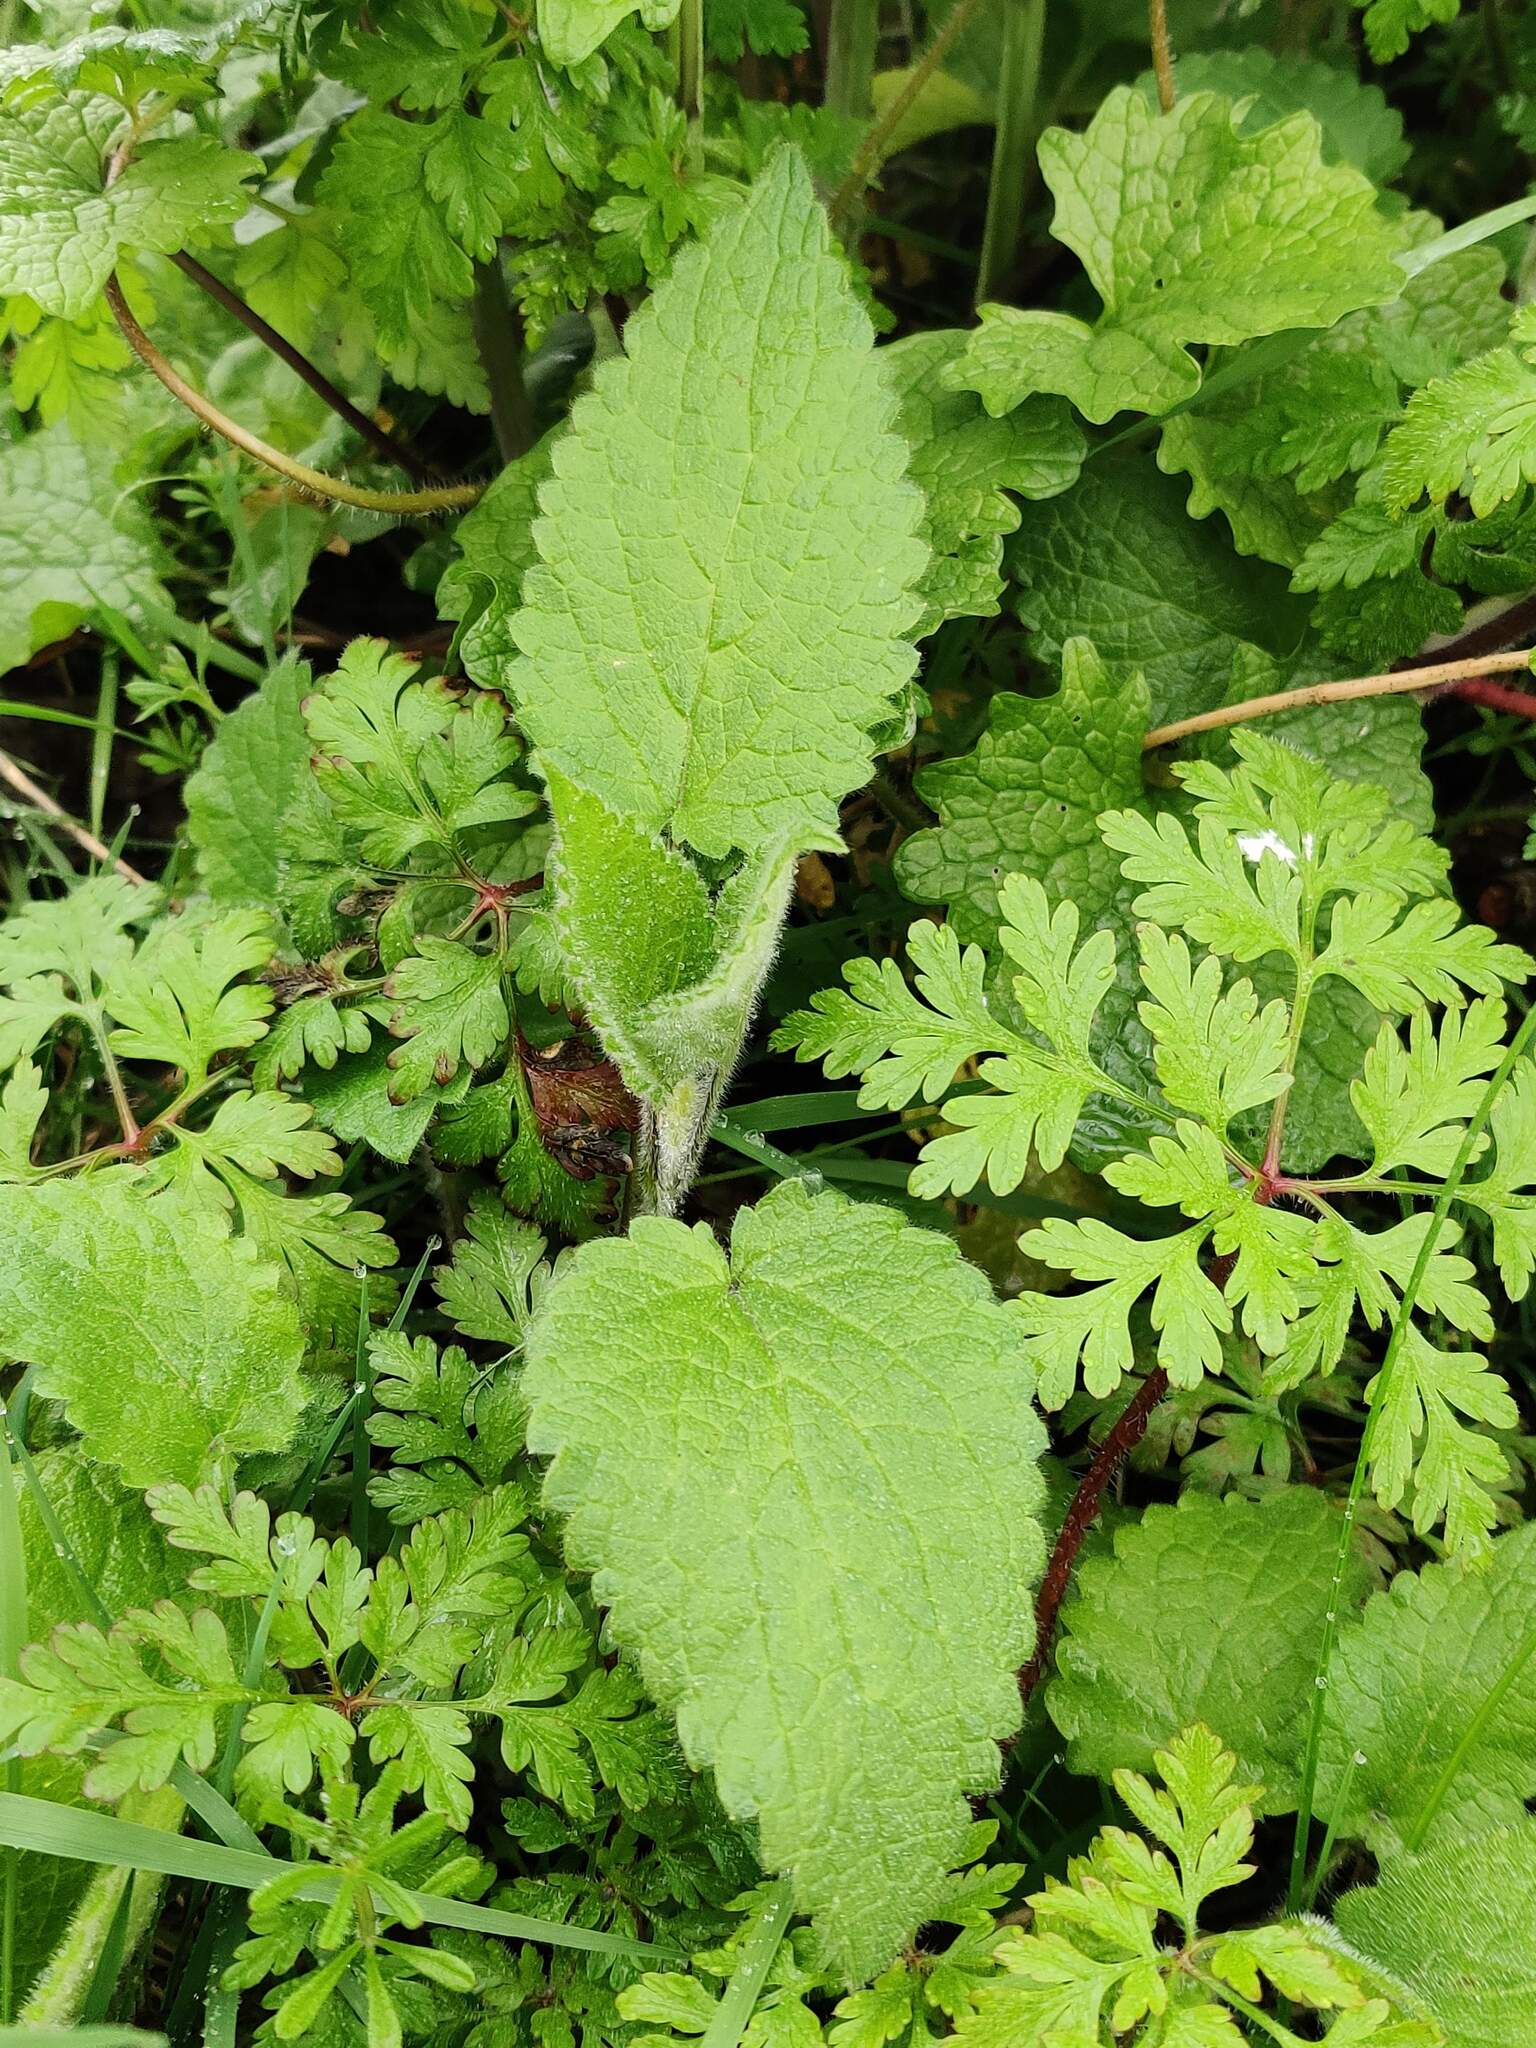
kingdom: Plantae
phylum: Tracheophyta
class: Magnoliopsida
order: Lamiales
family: Lamiaceae
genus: Stachys
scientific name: Stachys sylvatica
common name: Hedge woundwort
